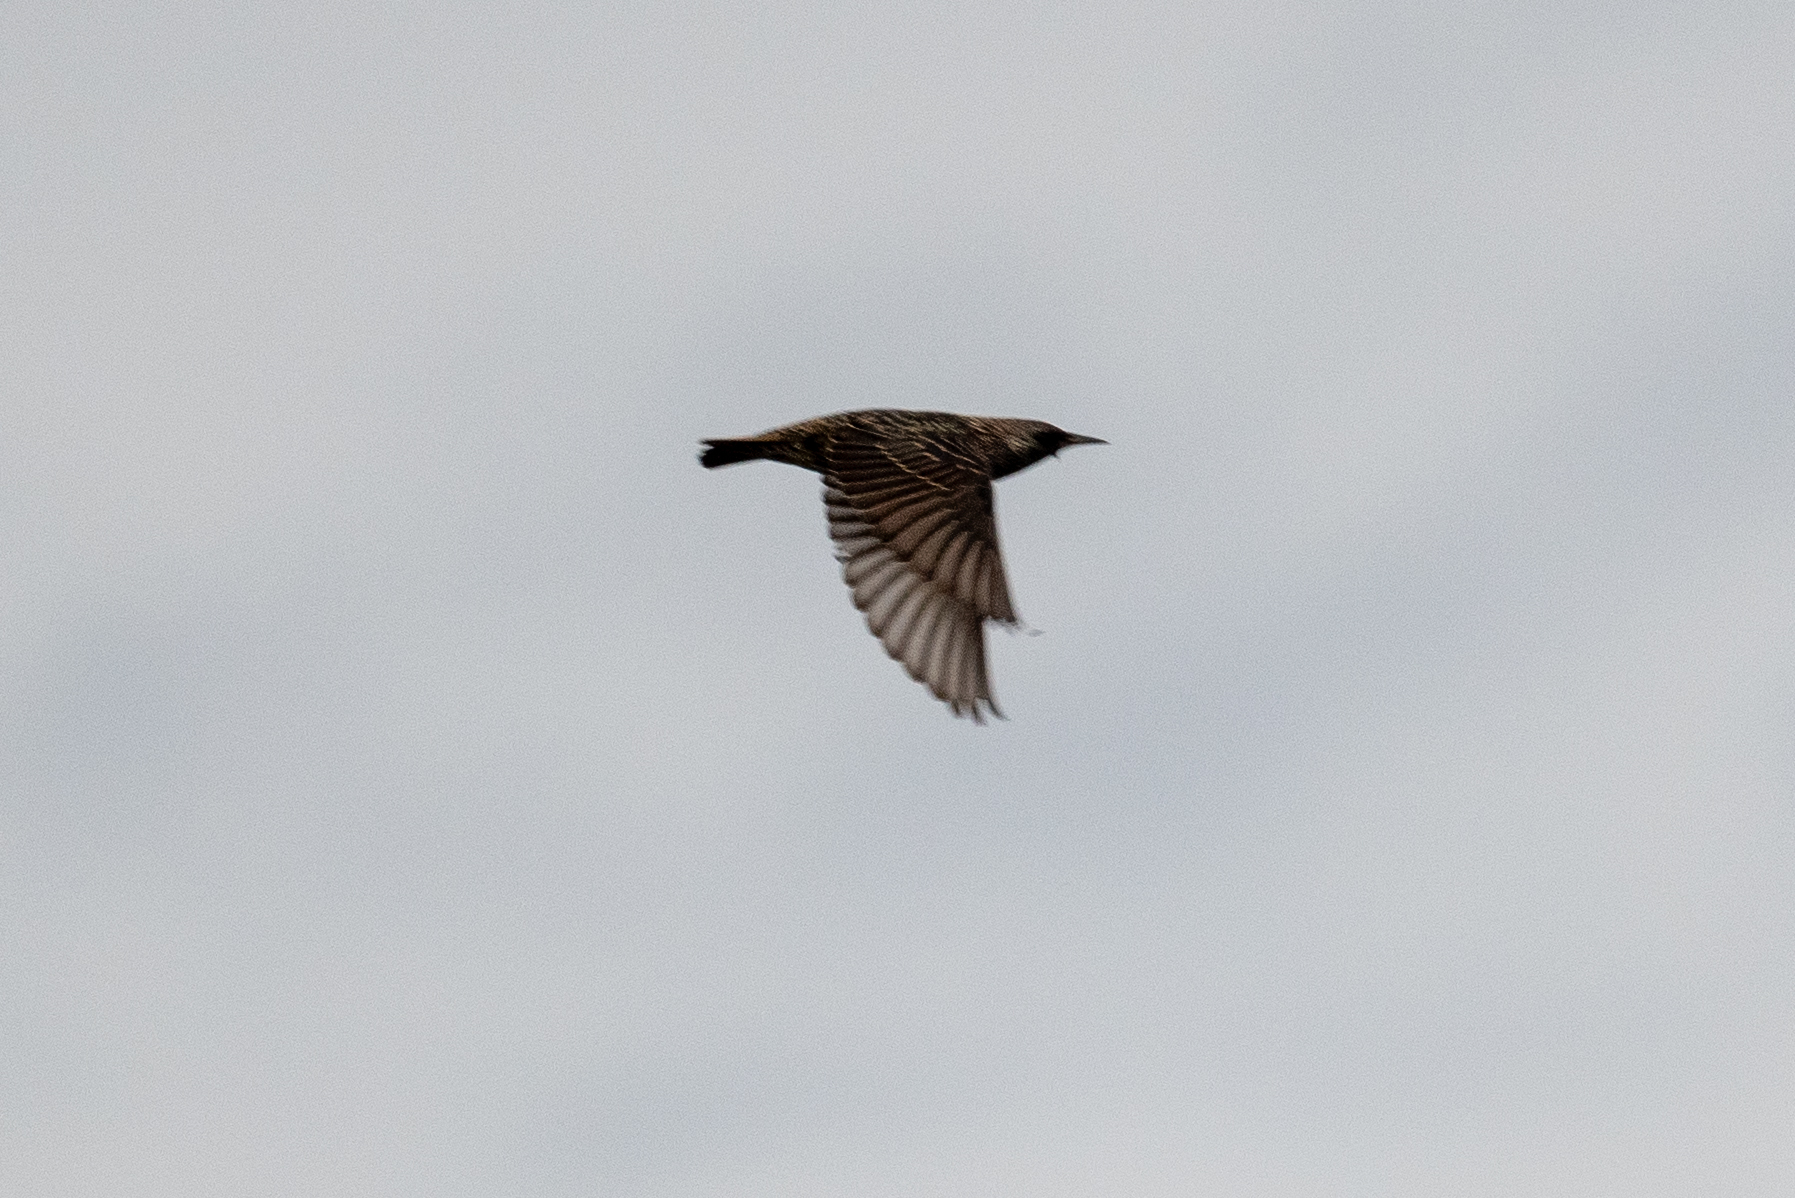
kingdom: Animalia
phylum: Chordata
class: Aves
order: Passeriformes
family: Sturnidae
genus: Sturnus
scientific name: Sturnus vulgaris
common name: Common starling
